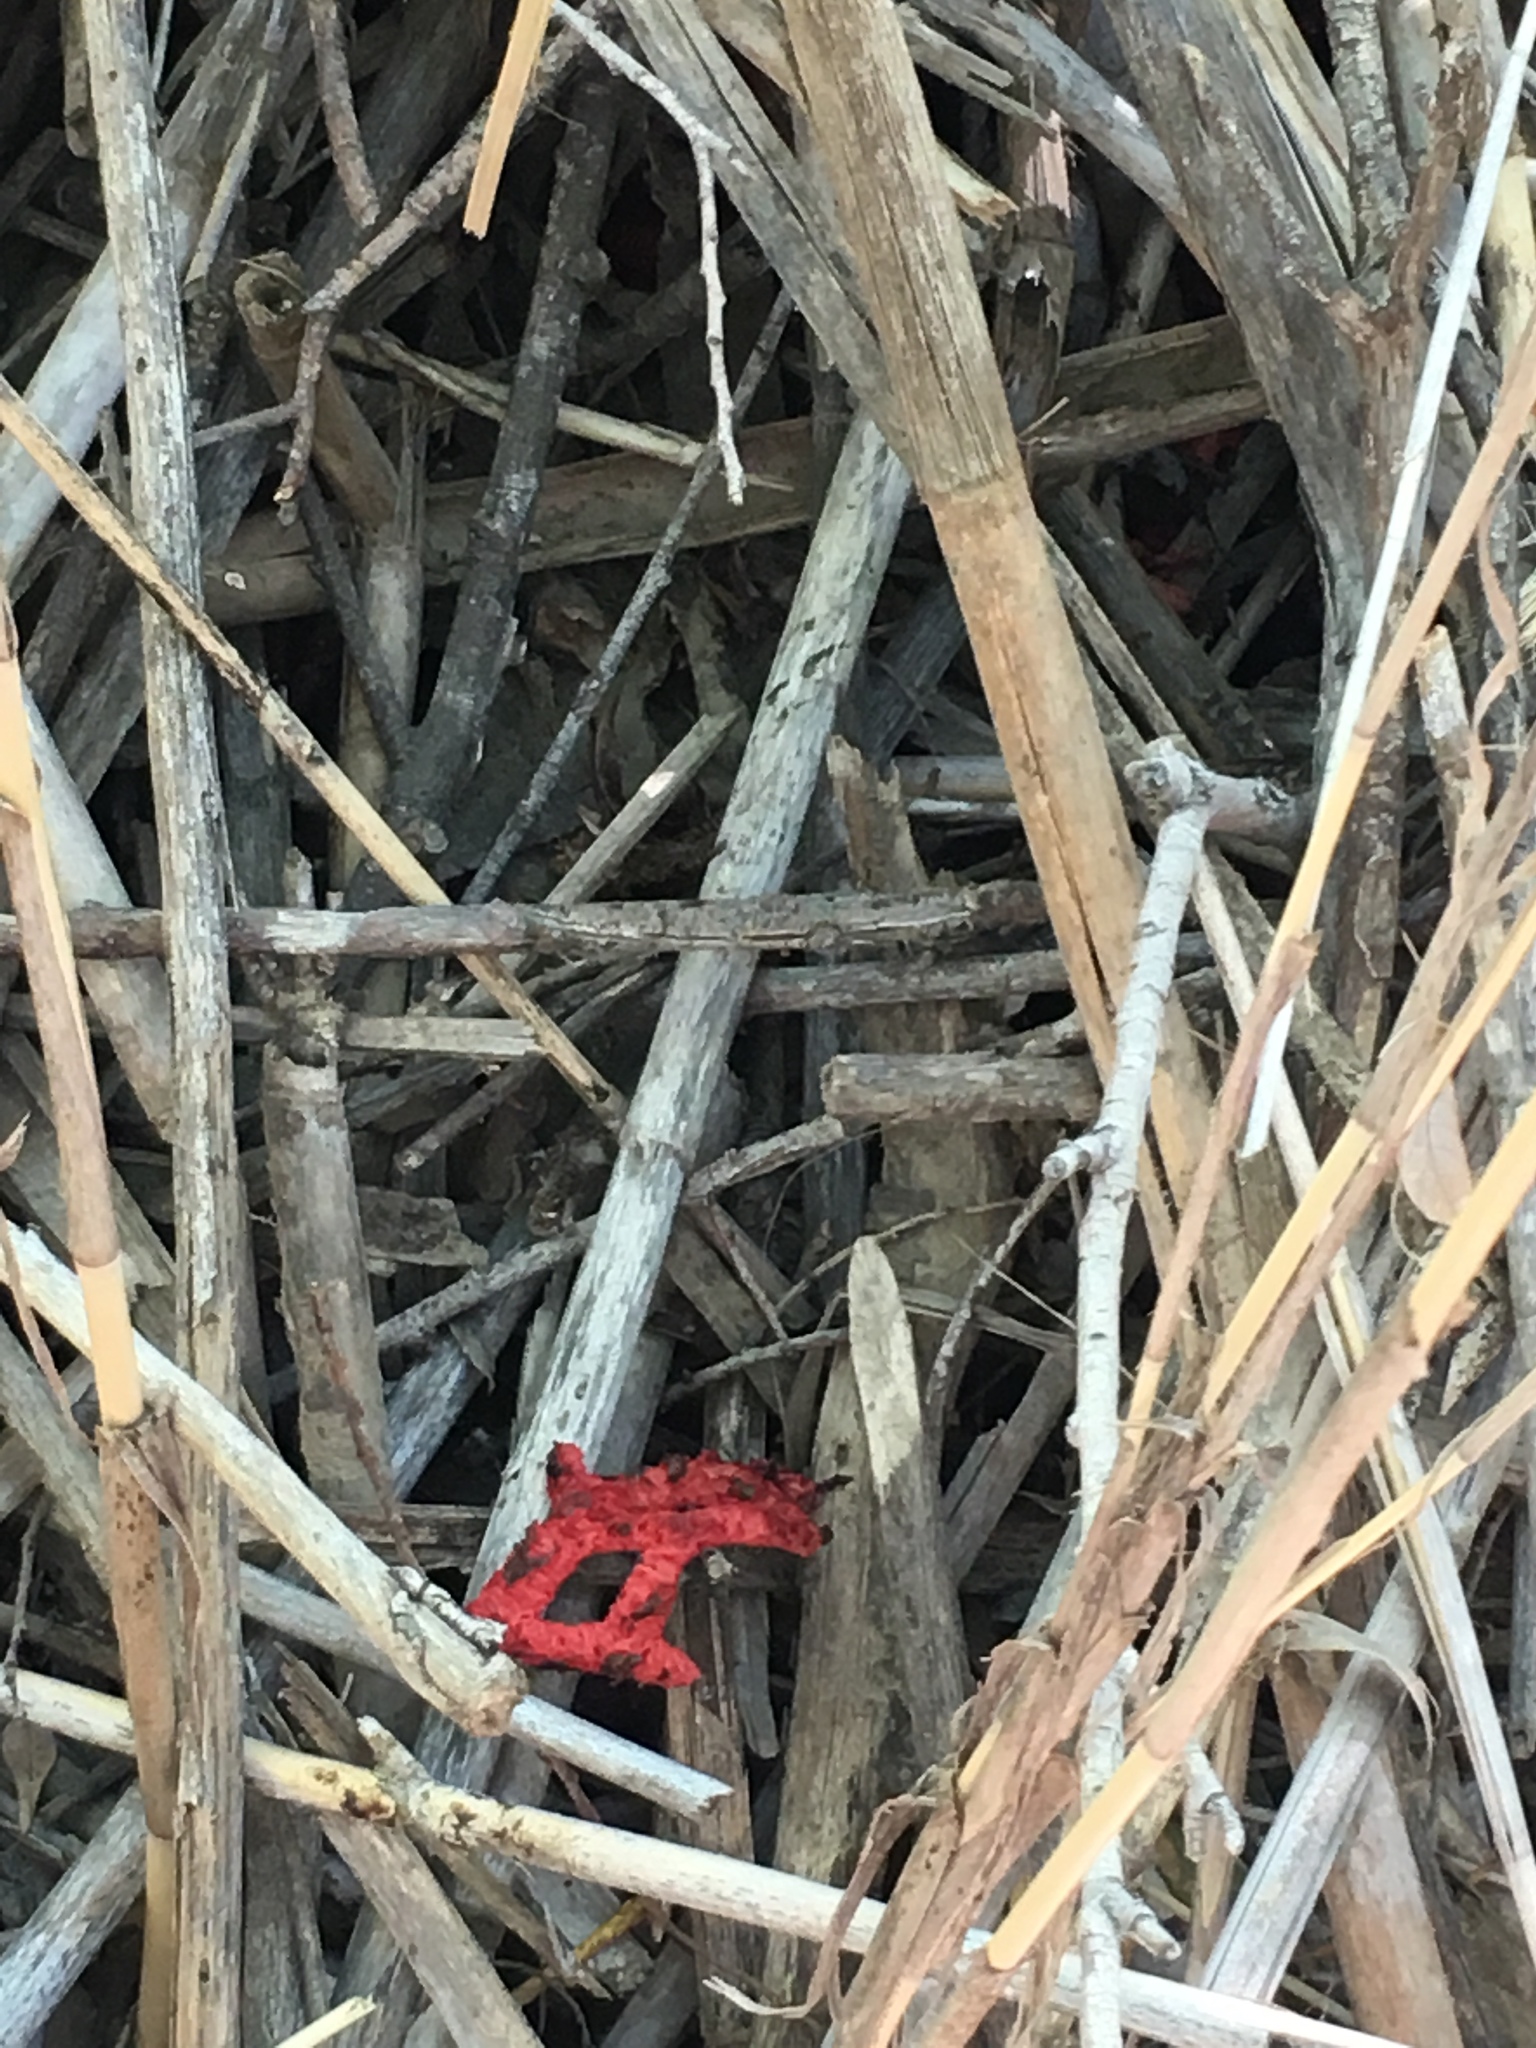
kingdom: Fungi
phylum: Basidiomycota
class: Agaricomycetes
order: Phallales
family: Phallaceae
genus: Clathrus
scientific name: Clathrus ruber
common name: Red cage
